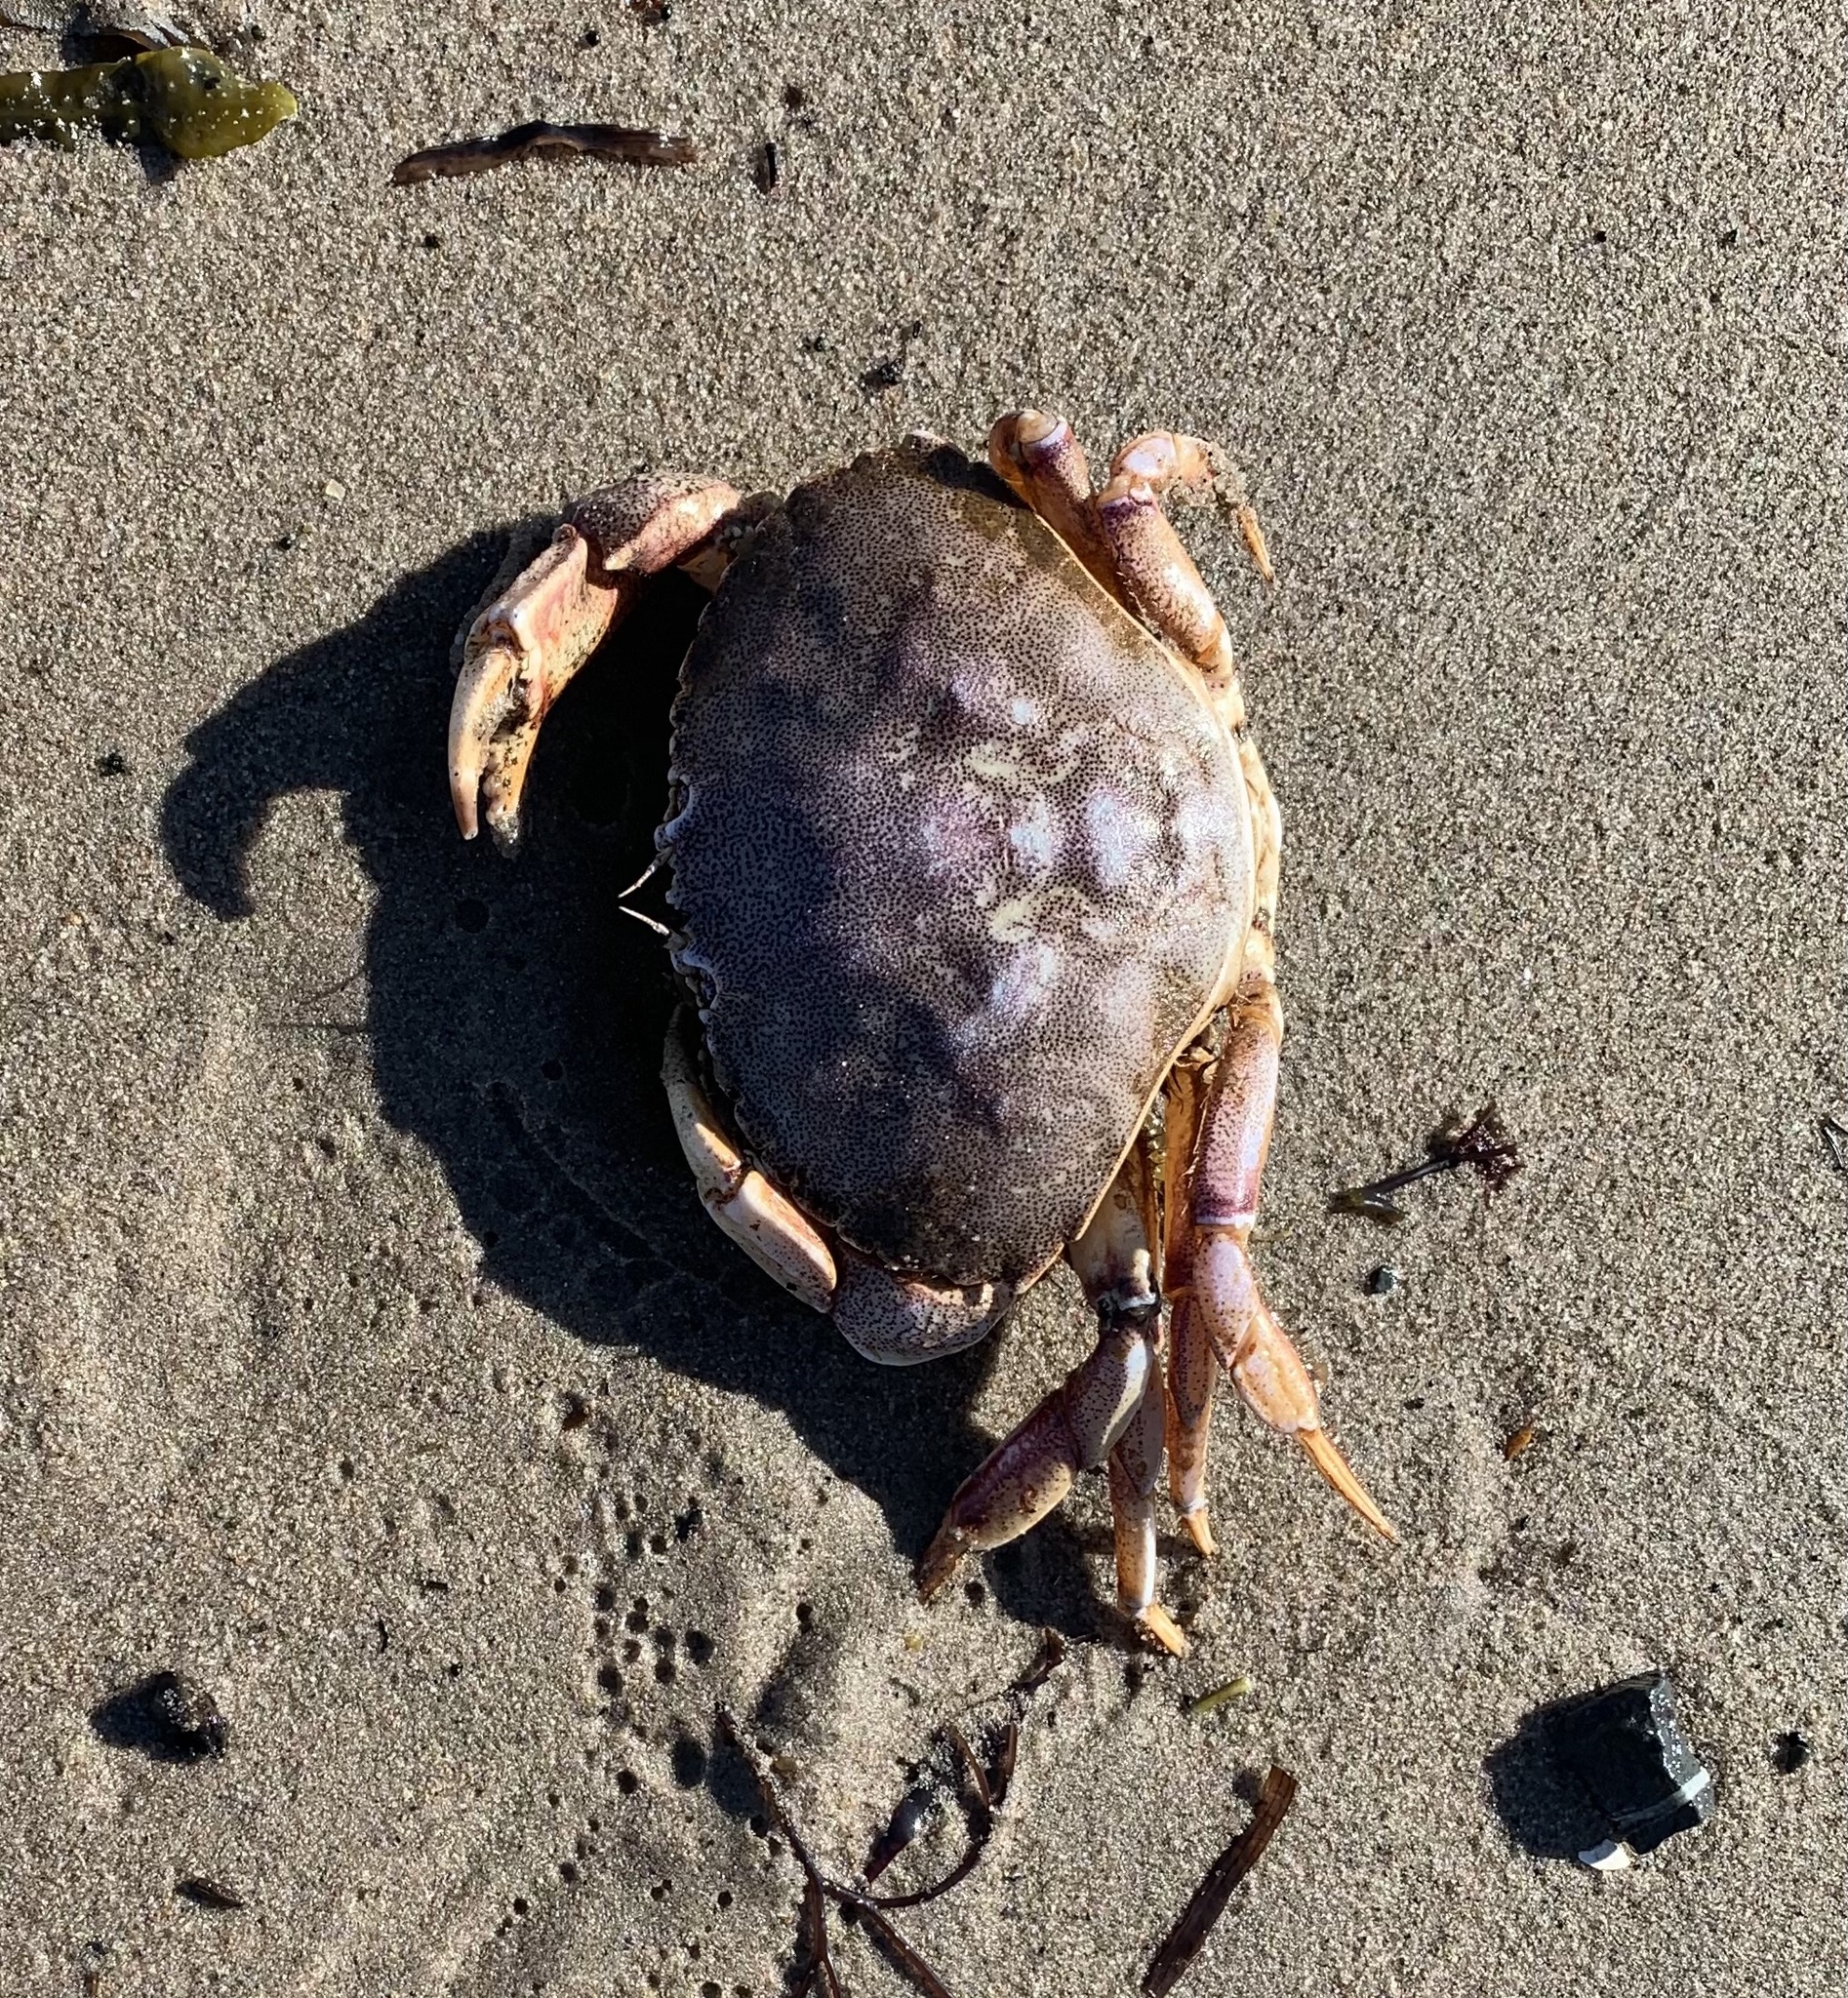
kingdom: Animalia
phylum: Arthropoda
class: Malacostraca
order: Decapoda
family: Cancridae
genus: Cancer
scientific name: Cancer irroratus
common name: Atlantic rock crab
